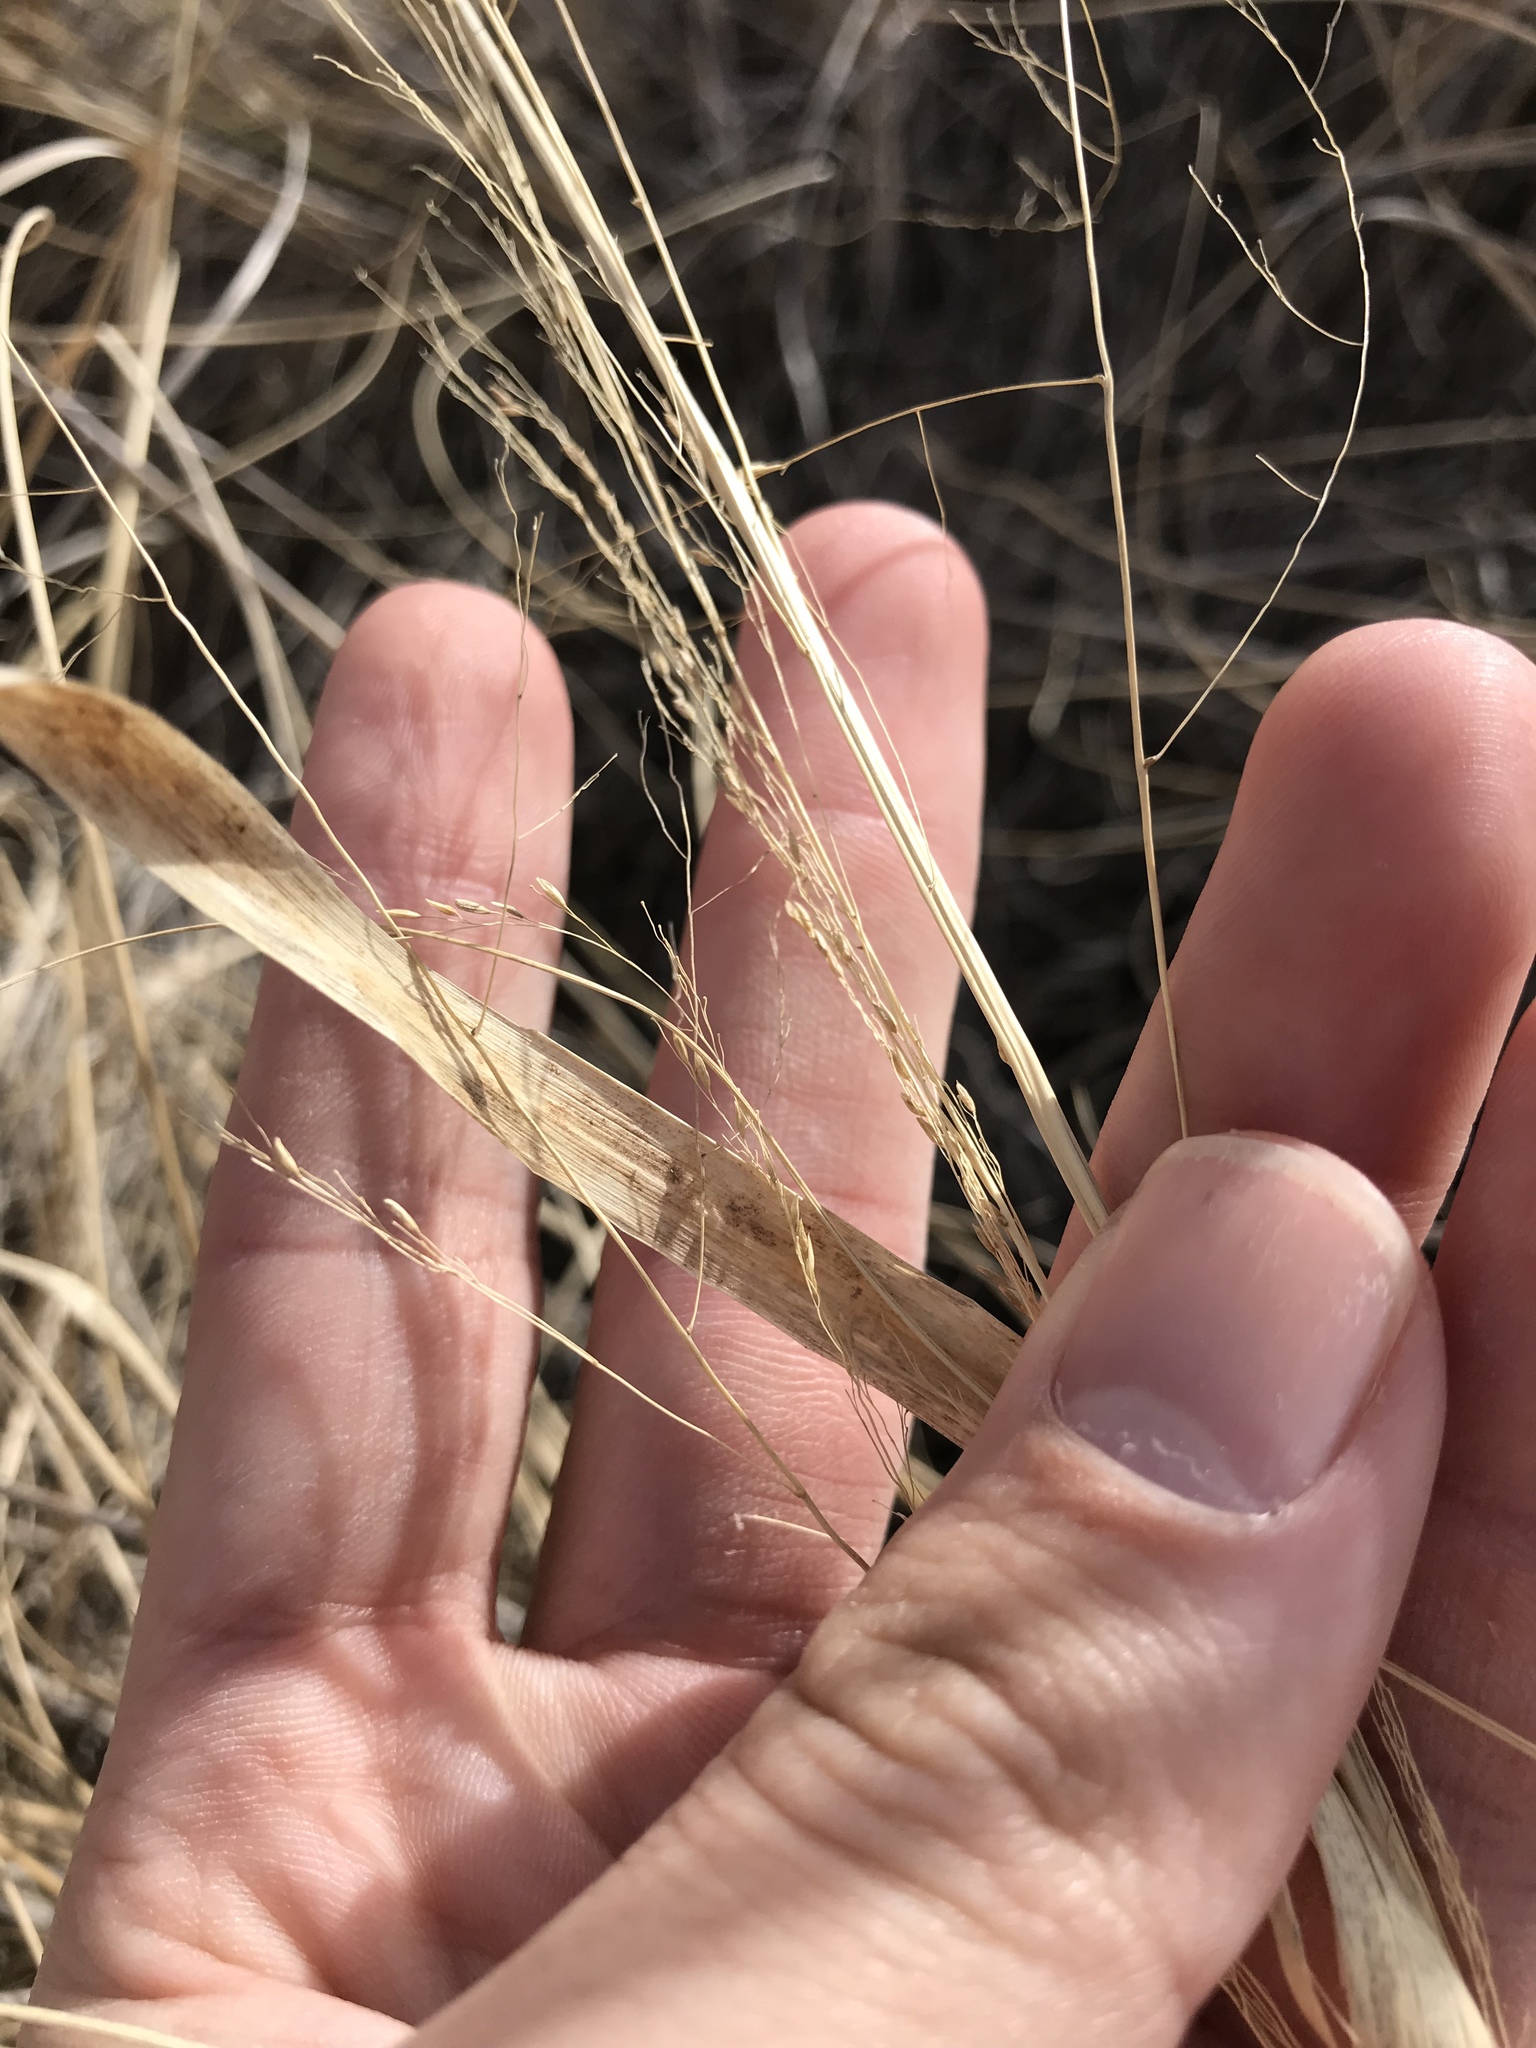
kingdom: Plantae
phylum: Tracheophyta
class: Liliopsida
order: Poales
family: Poaceae
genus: Sporobolus
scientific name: Sporobolus airoides
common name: Alkali sacaton
